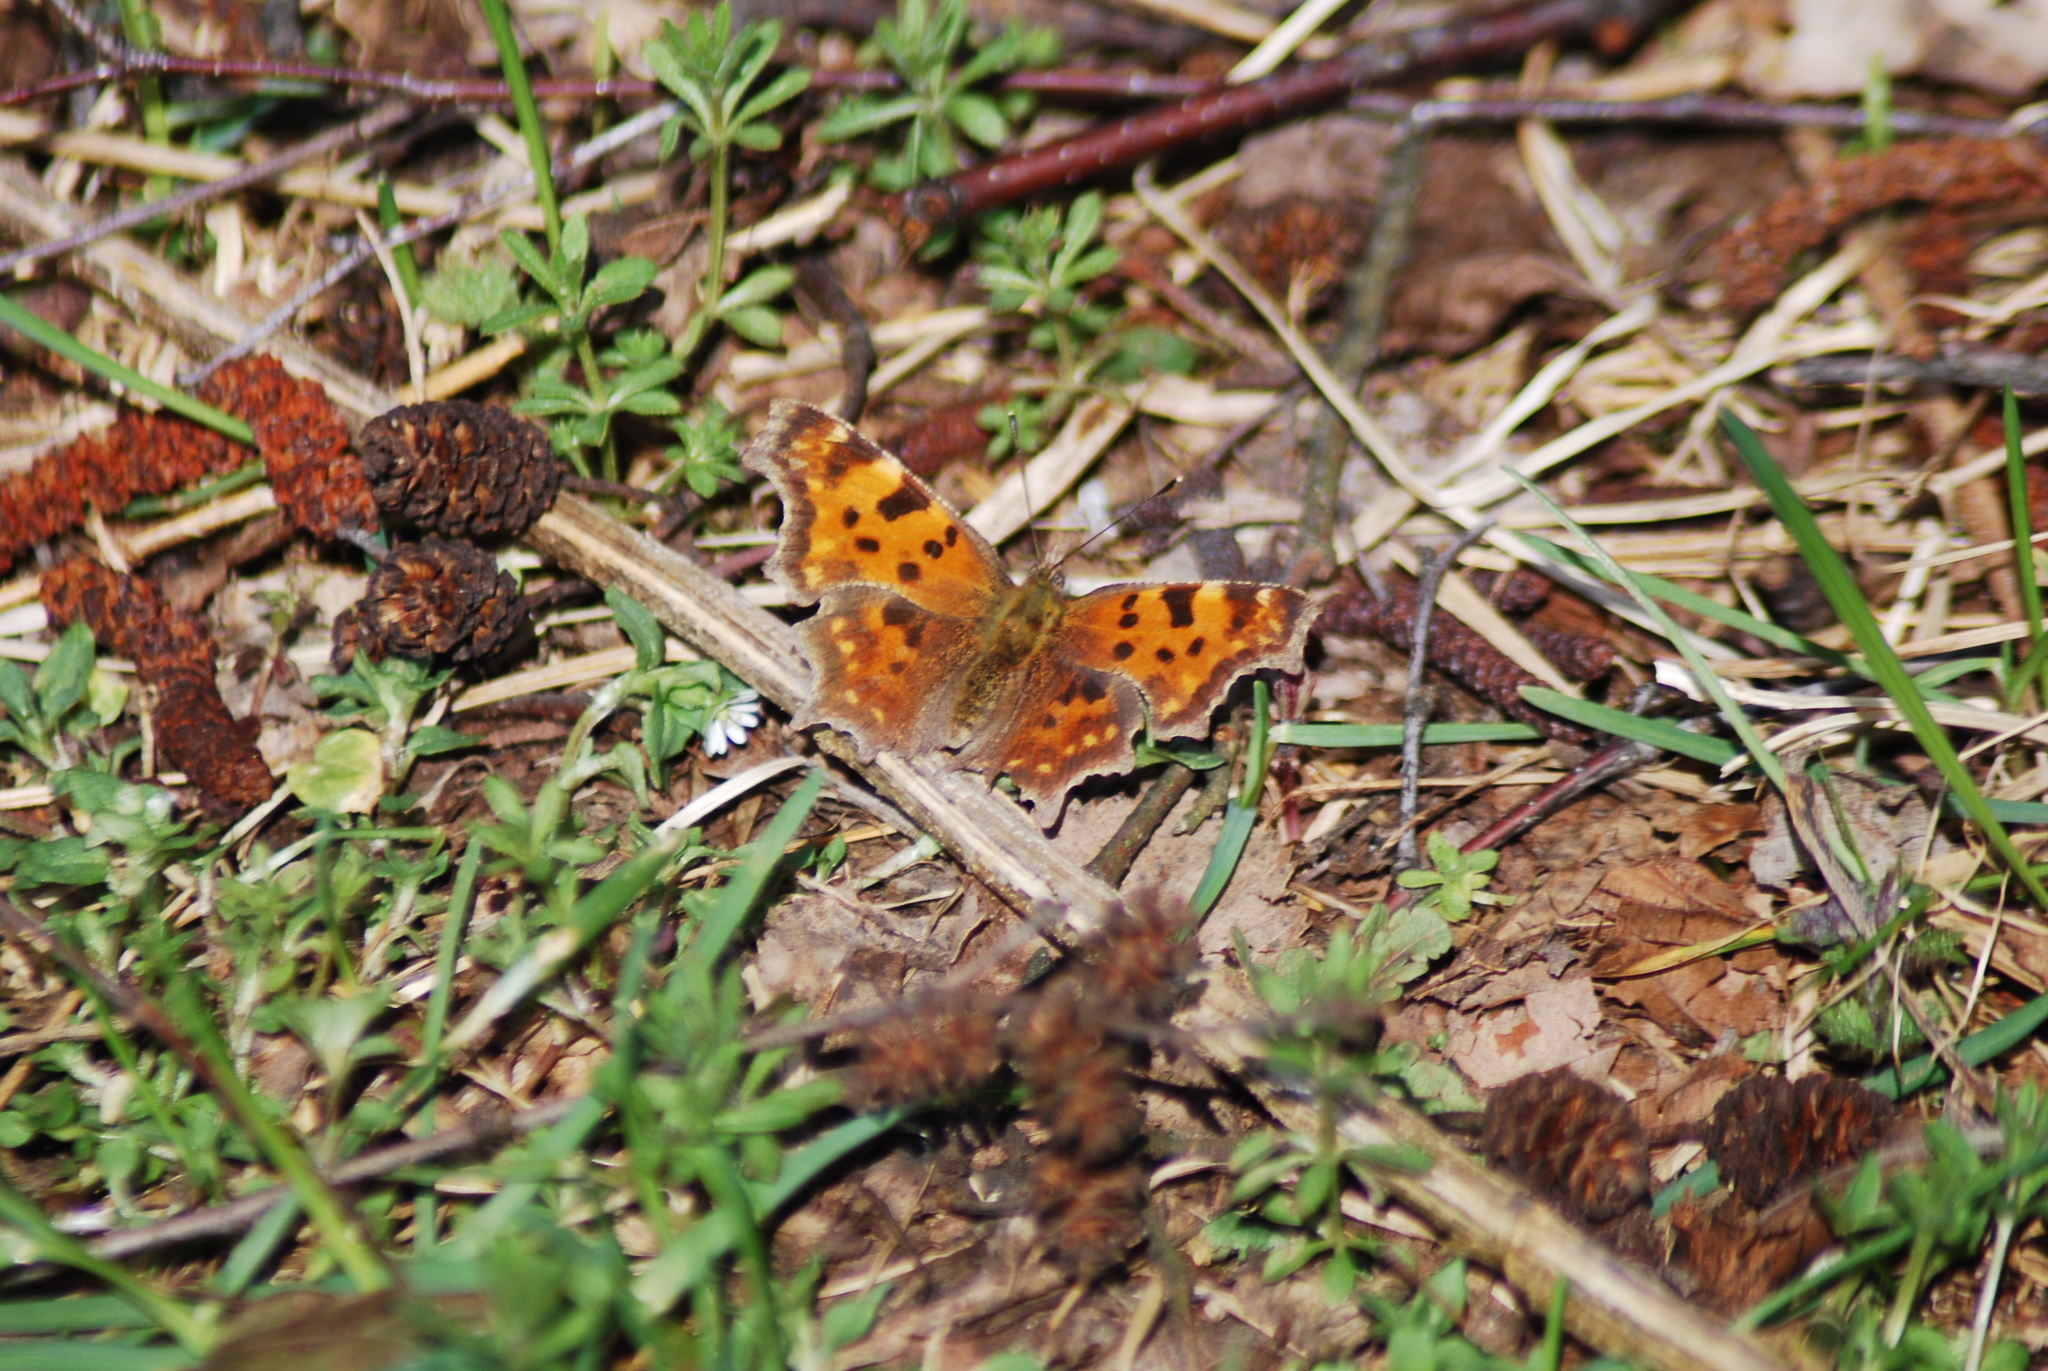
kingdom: Animalia
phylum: Arthropoda
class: Insecta
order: Lepidoptera
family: Nymphalidae
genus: Polygonia
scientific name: Polygonia c-album
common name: Comma
